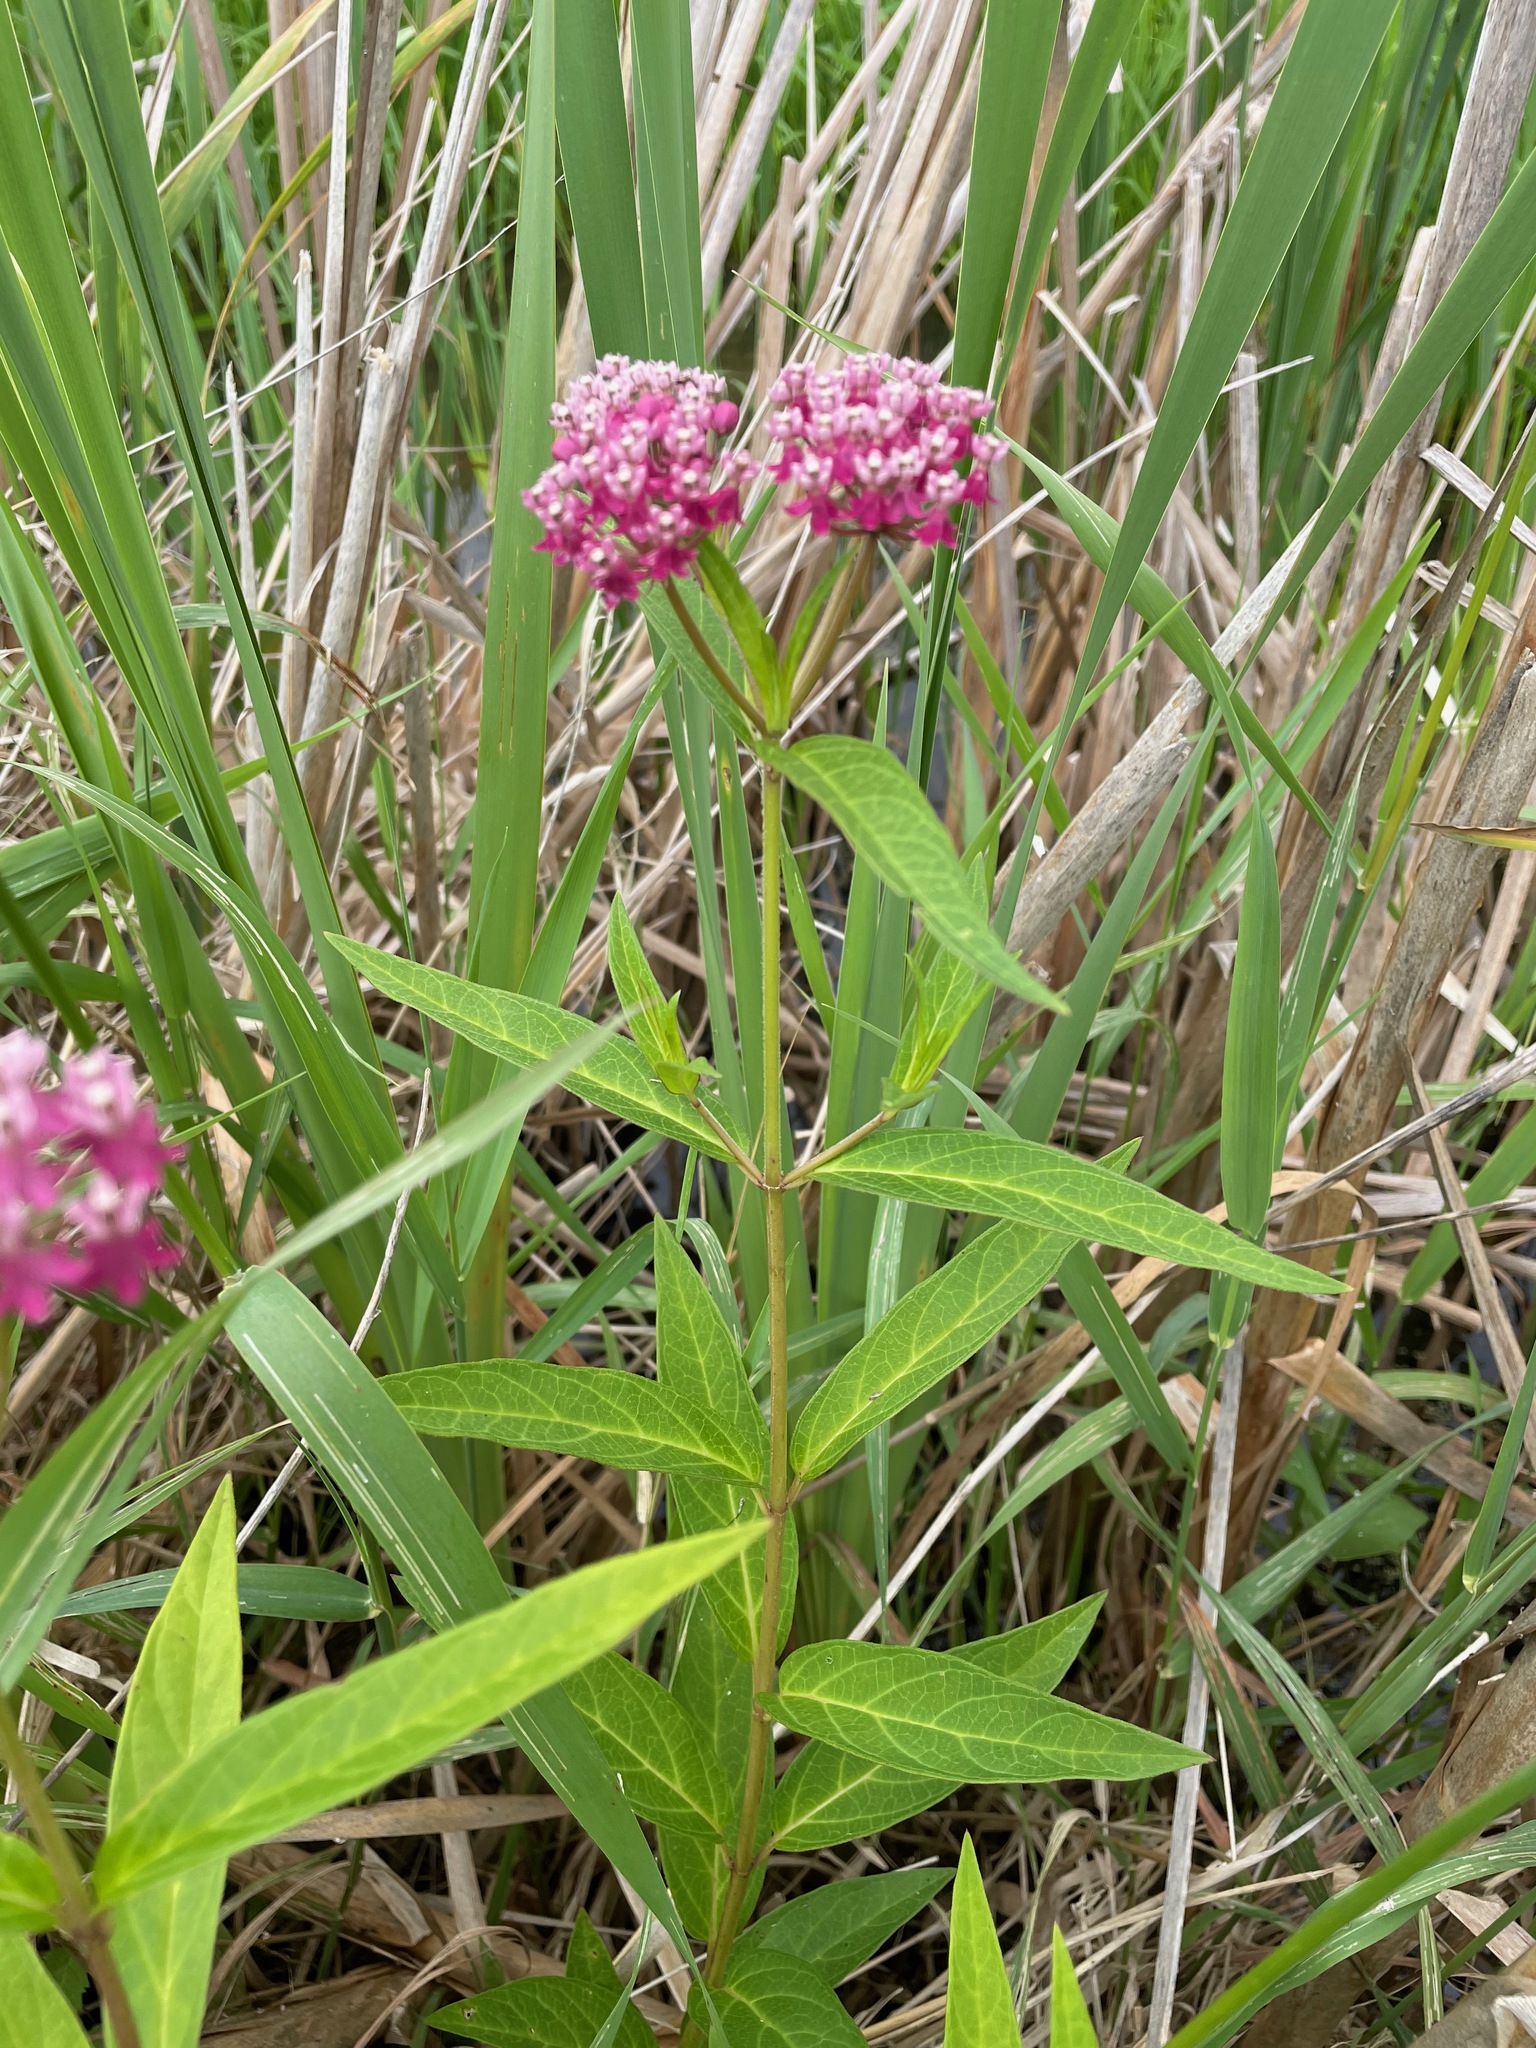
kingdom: Plantae
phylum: Tracheophyta
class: Magnoliopsida
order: Gentianales
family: Apocynaceae
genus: Asclepias
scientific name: Asclepias incarnata
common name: Swamp milkweed
